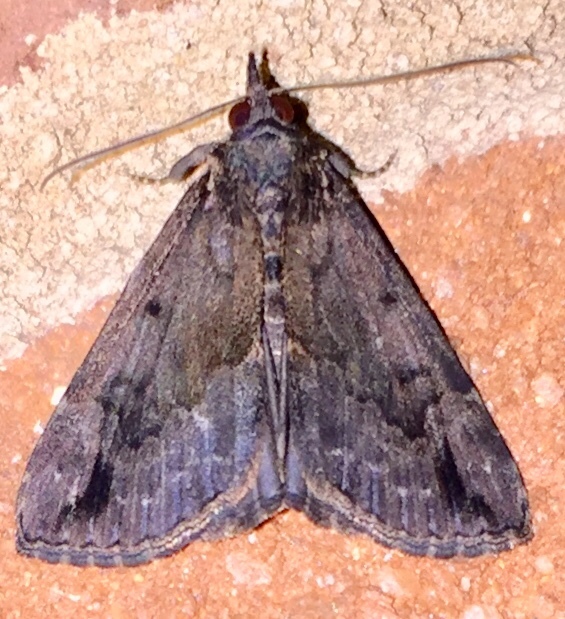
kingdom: Animalia
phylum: Arthropoda
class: Insecta
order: Lepidoptera
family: Erebidae
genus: Hypena
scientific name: Hypena baltimoralis
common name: Baltimore snout
